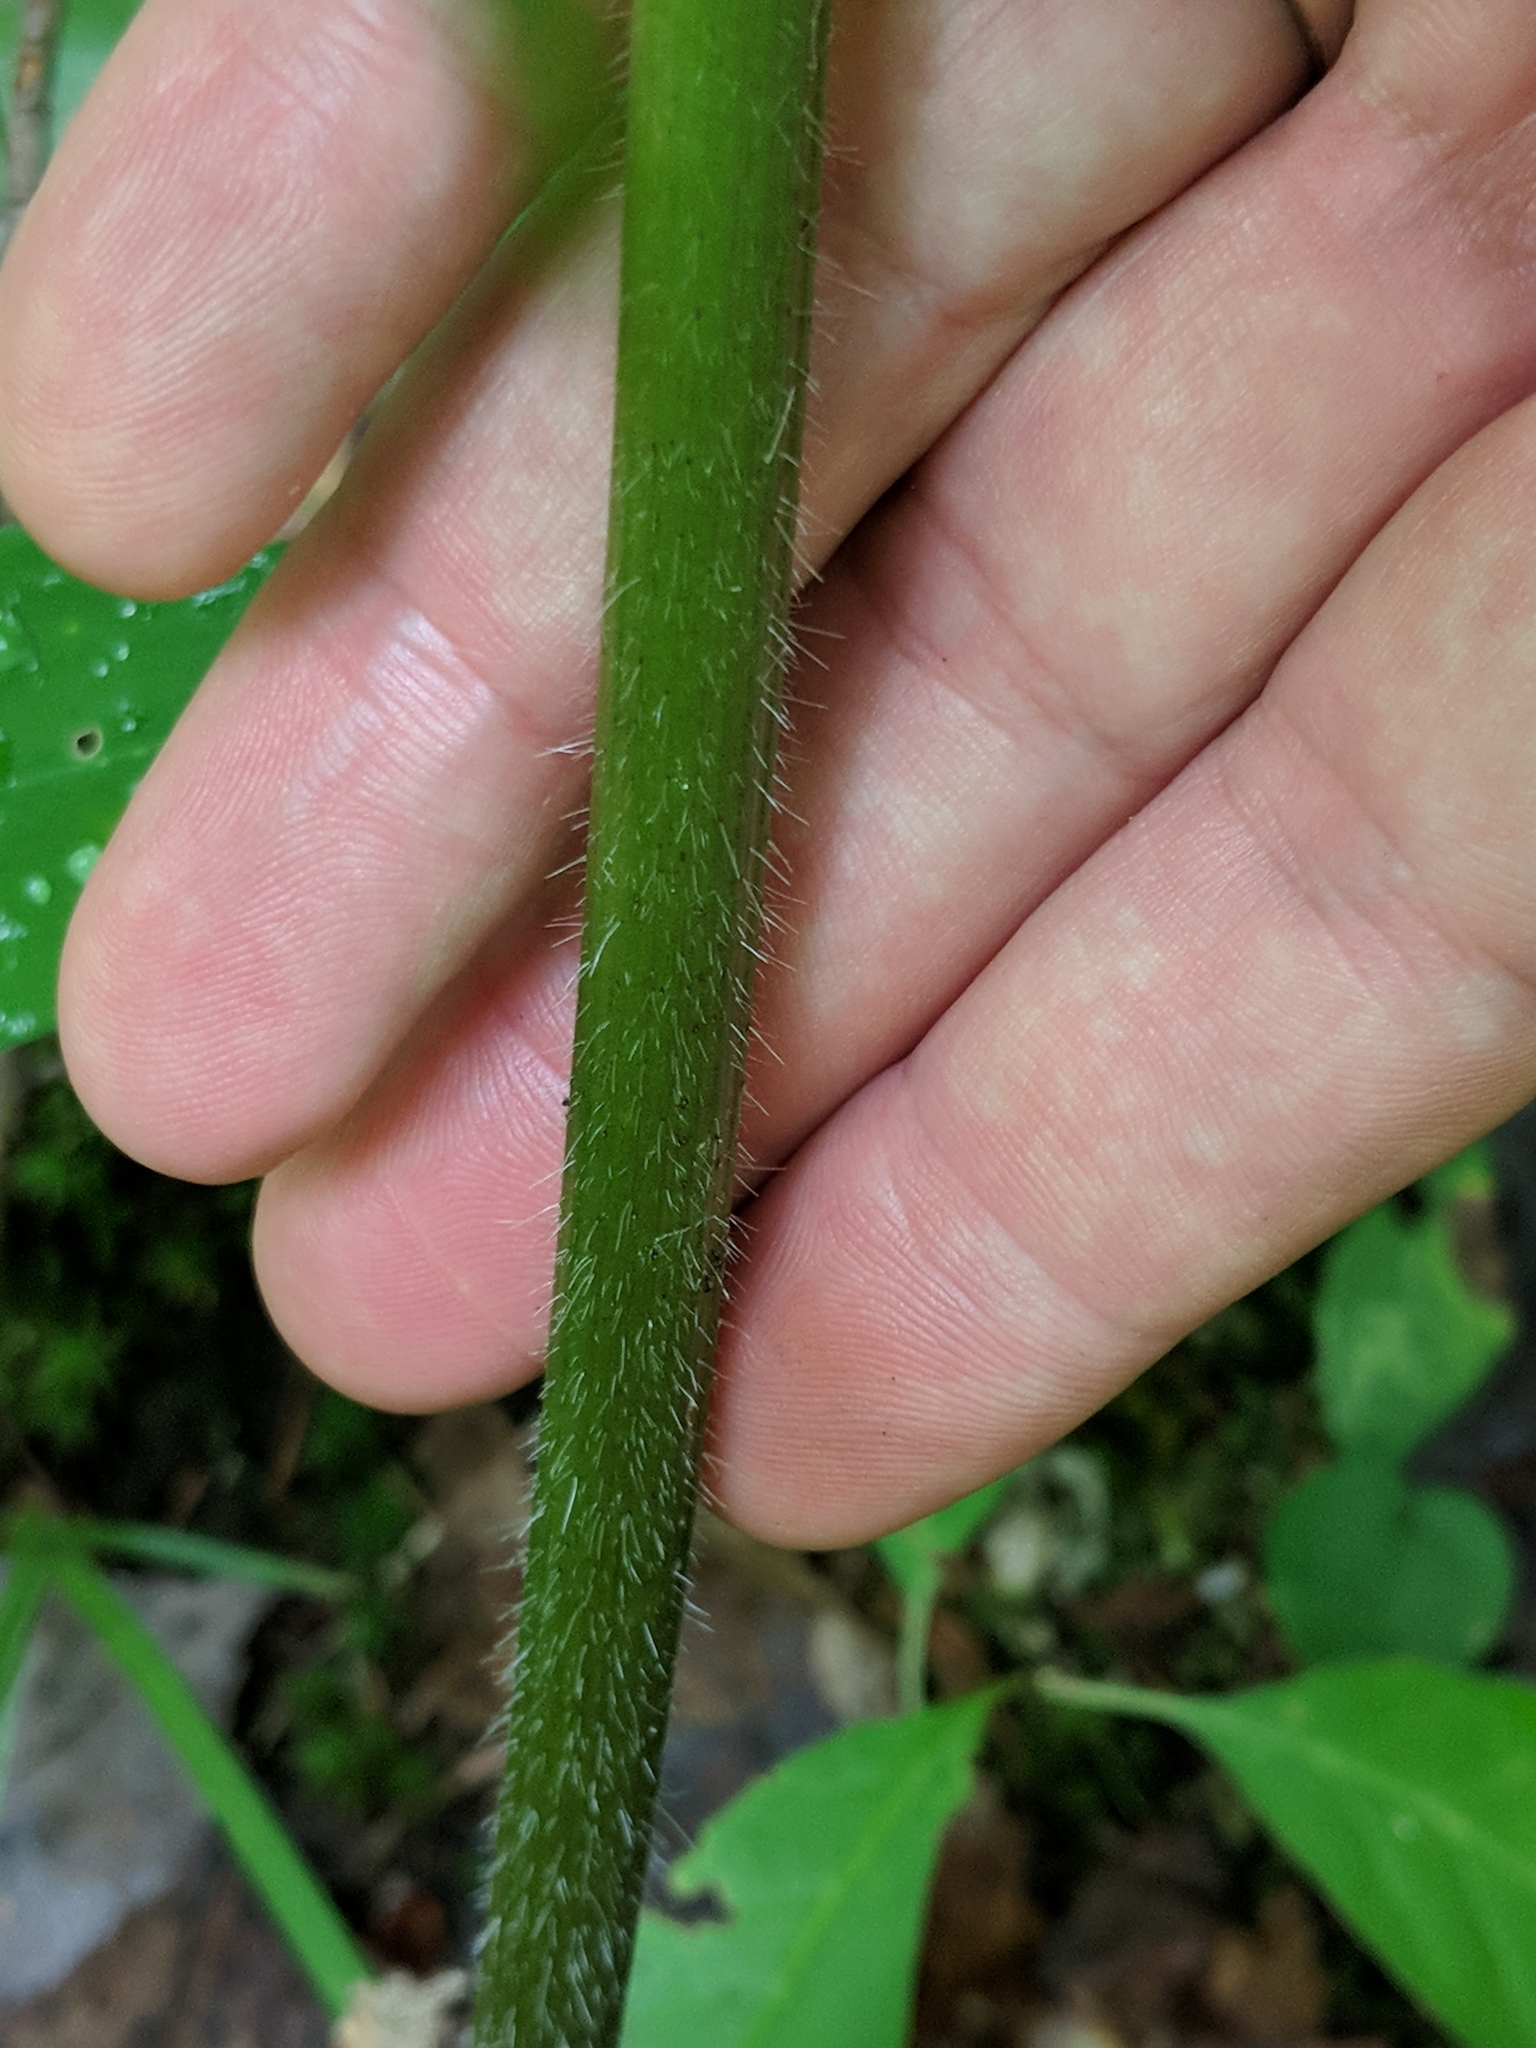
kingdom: Plantae
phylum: Tracheophyta
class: Magnoliopsida
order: Apiales
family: Apiaceae
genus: Heracleum
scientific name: Heracleum maximum
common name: American cow parsnip
